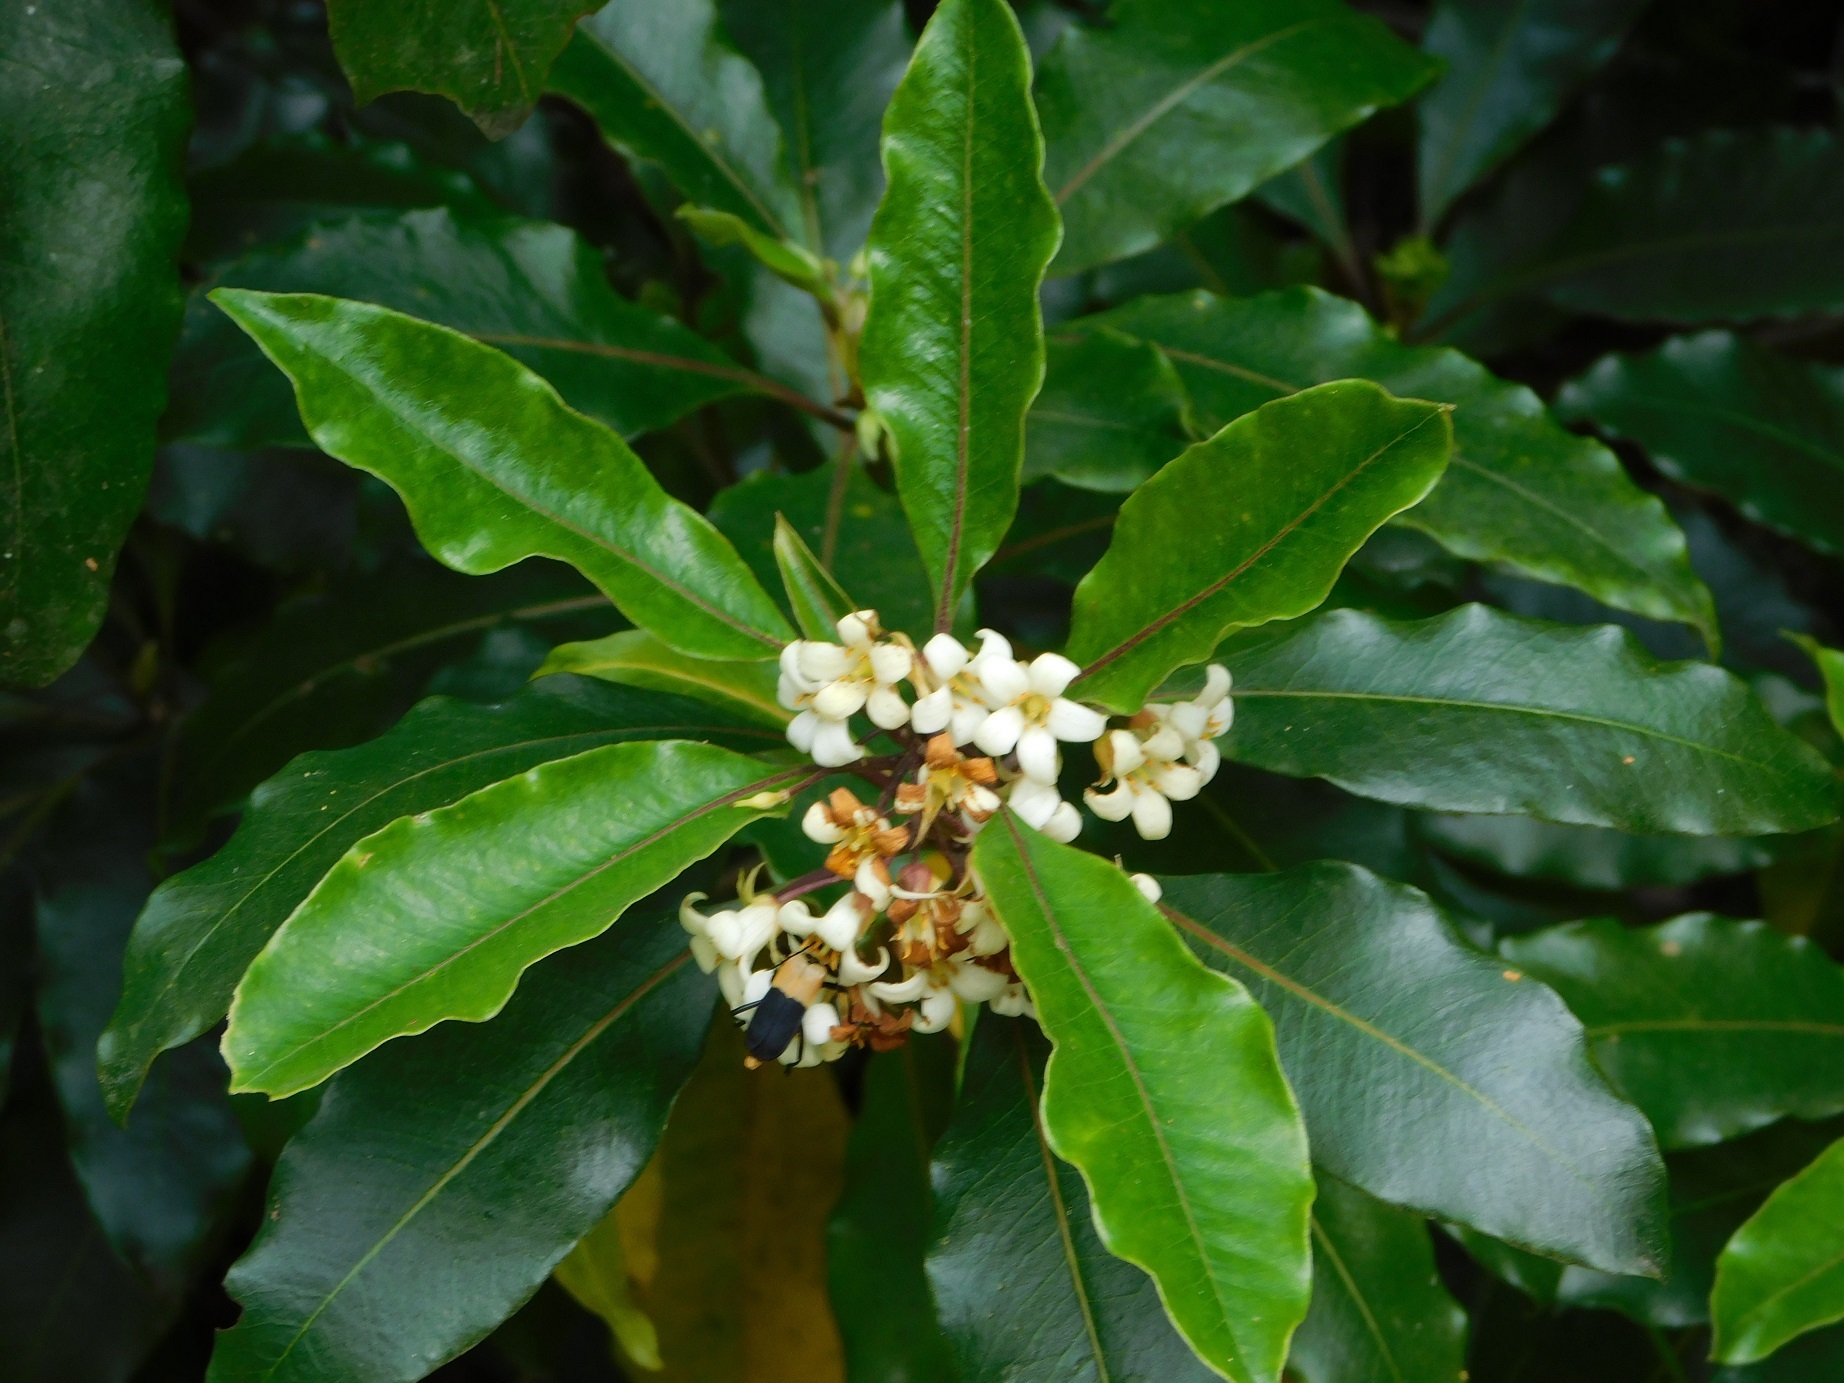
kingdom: Plantae
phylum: Tracheophyta
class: Magnoliopsida
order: Apiales
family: Pittosporaceae
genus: Pittosporum
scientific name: Pittosporum undulatum
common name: Australian cheesewood
